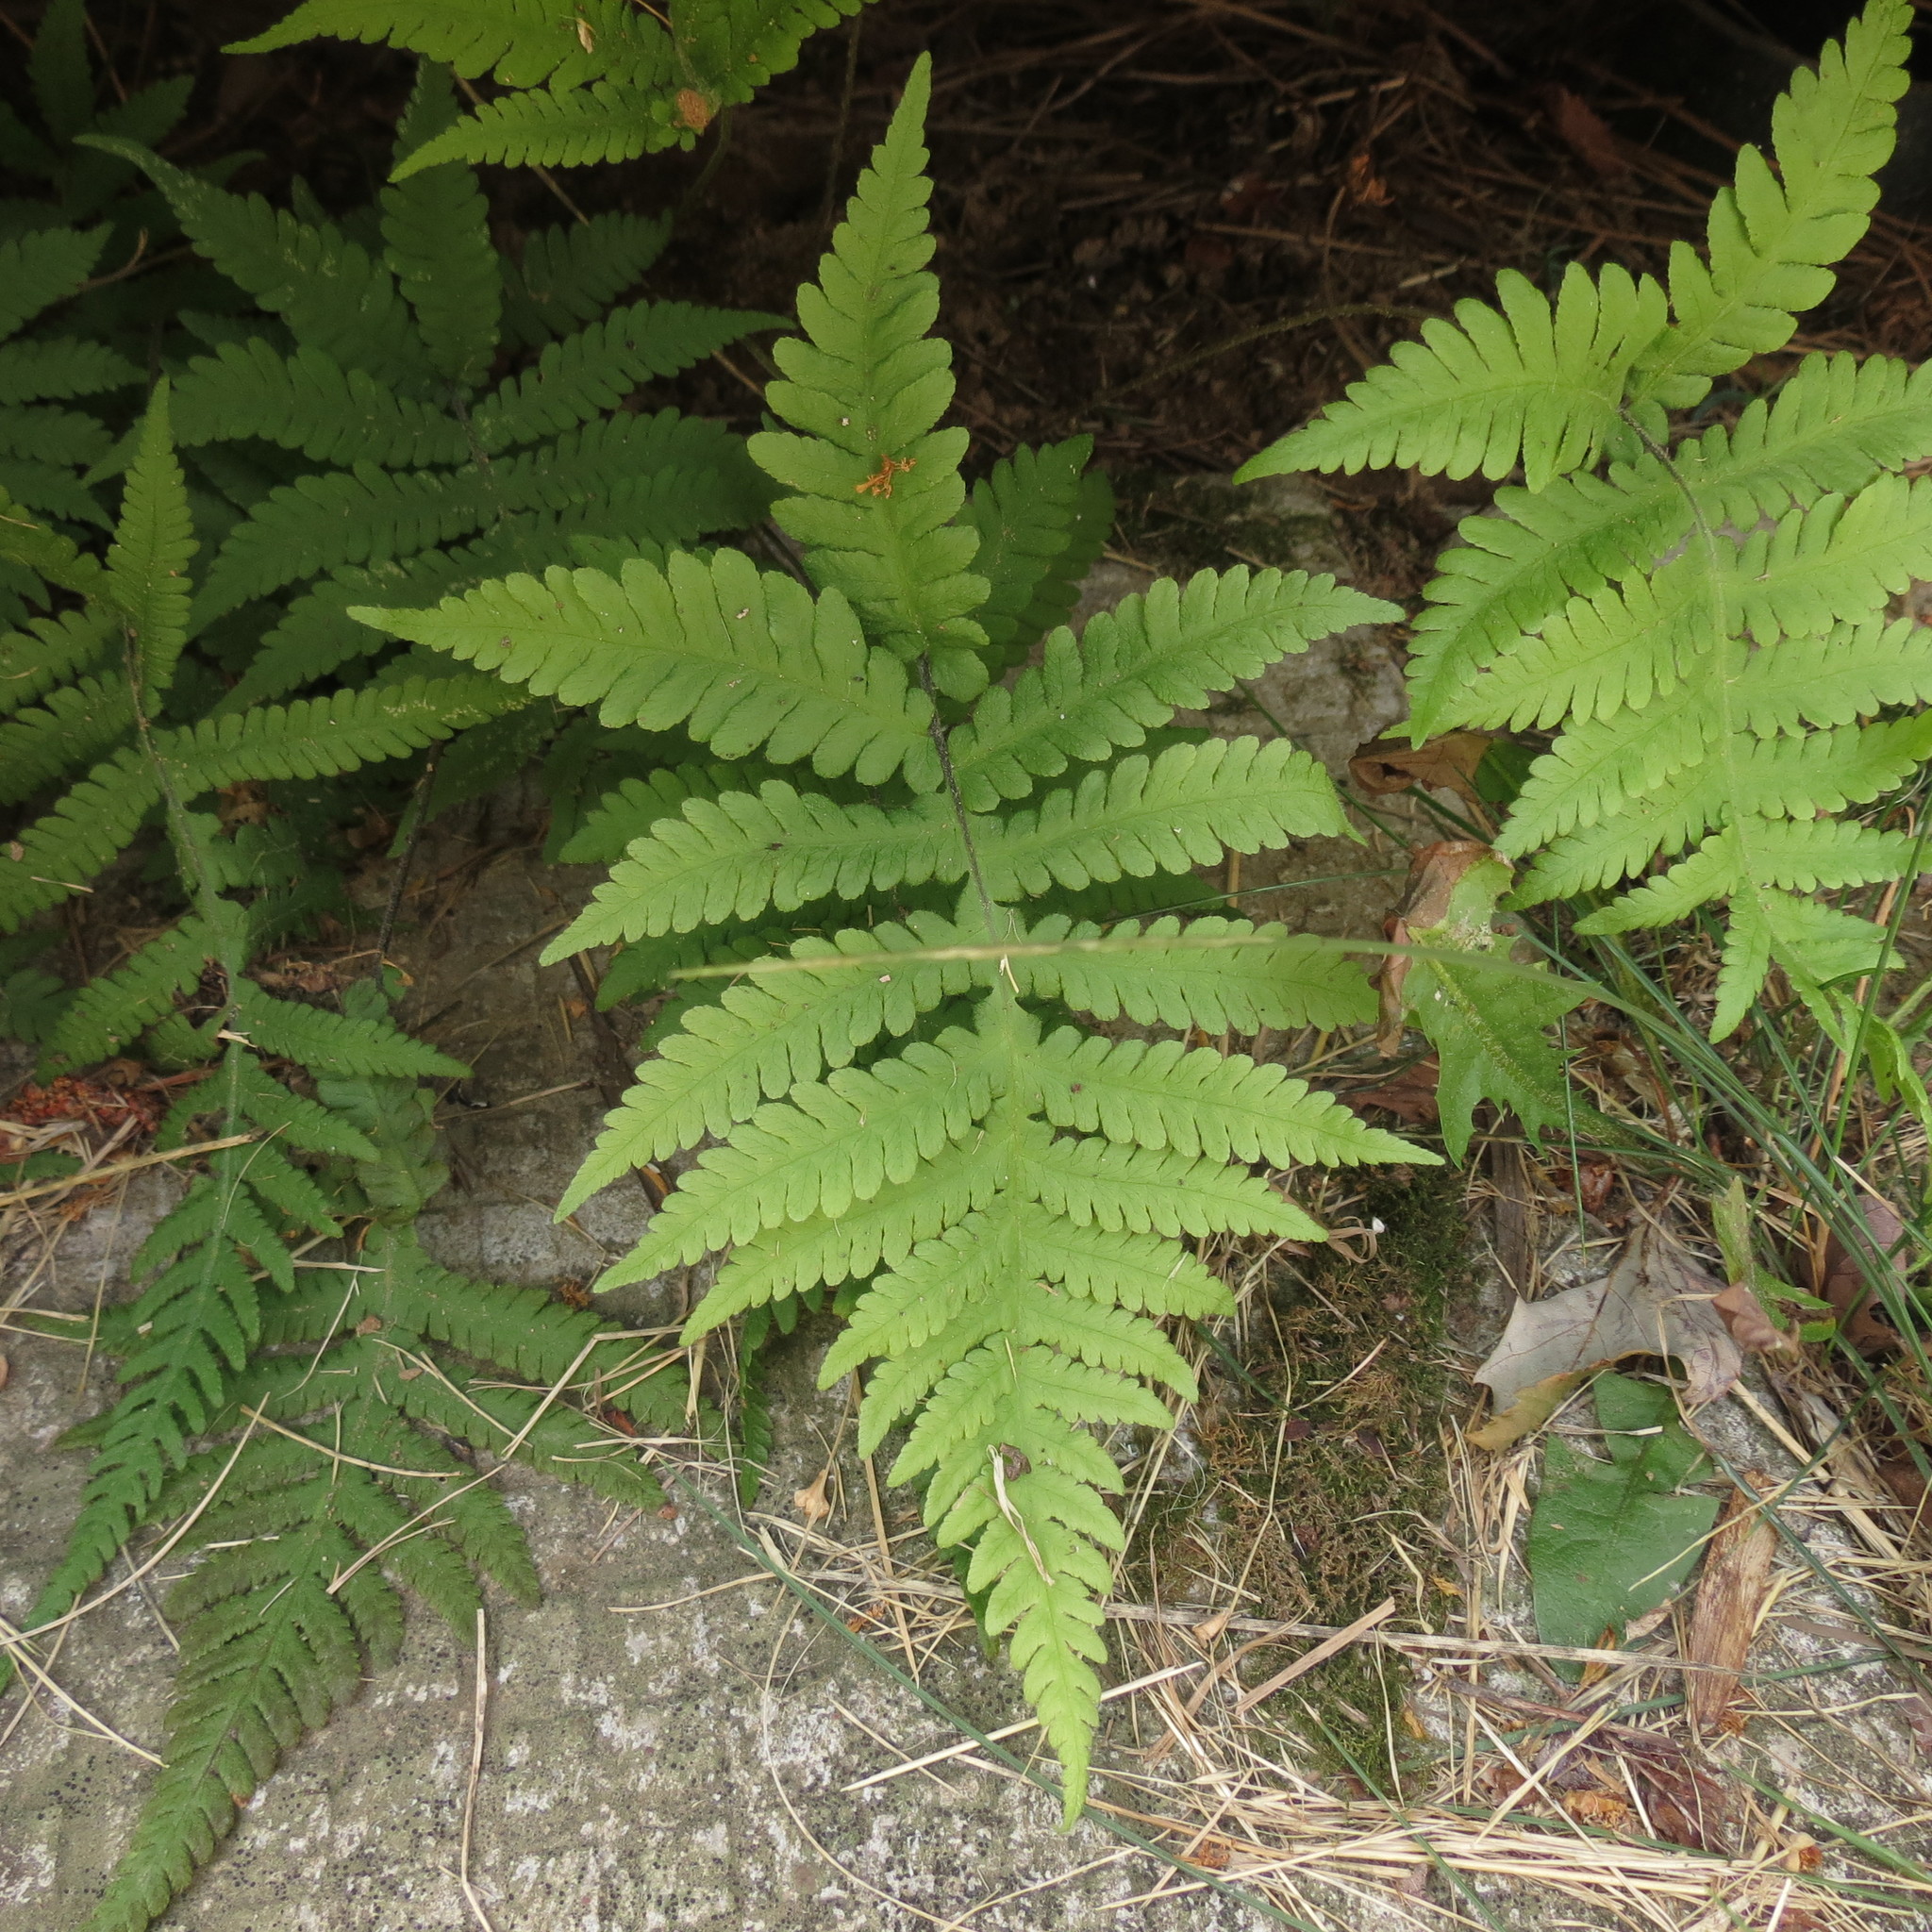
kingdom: Plantae
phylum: Tracheophyta
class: Polypodiopsida
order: Polypodiales
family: Thelypteridaceae
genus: Phegopteris
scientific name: Phegopteris connectilis
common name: Beech fern
